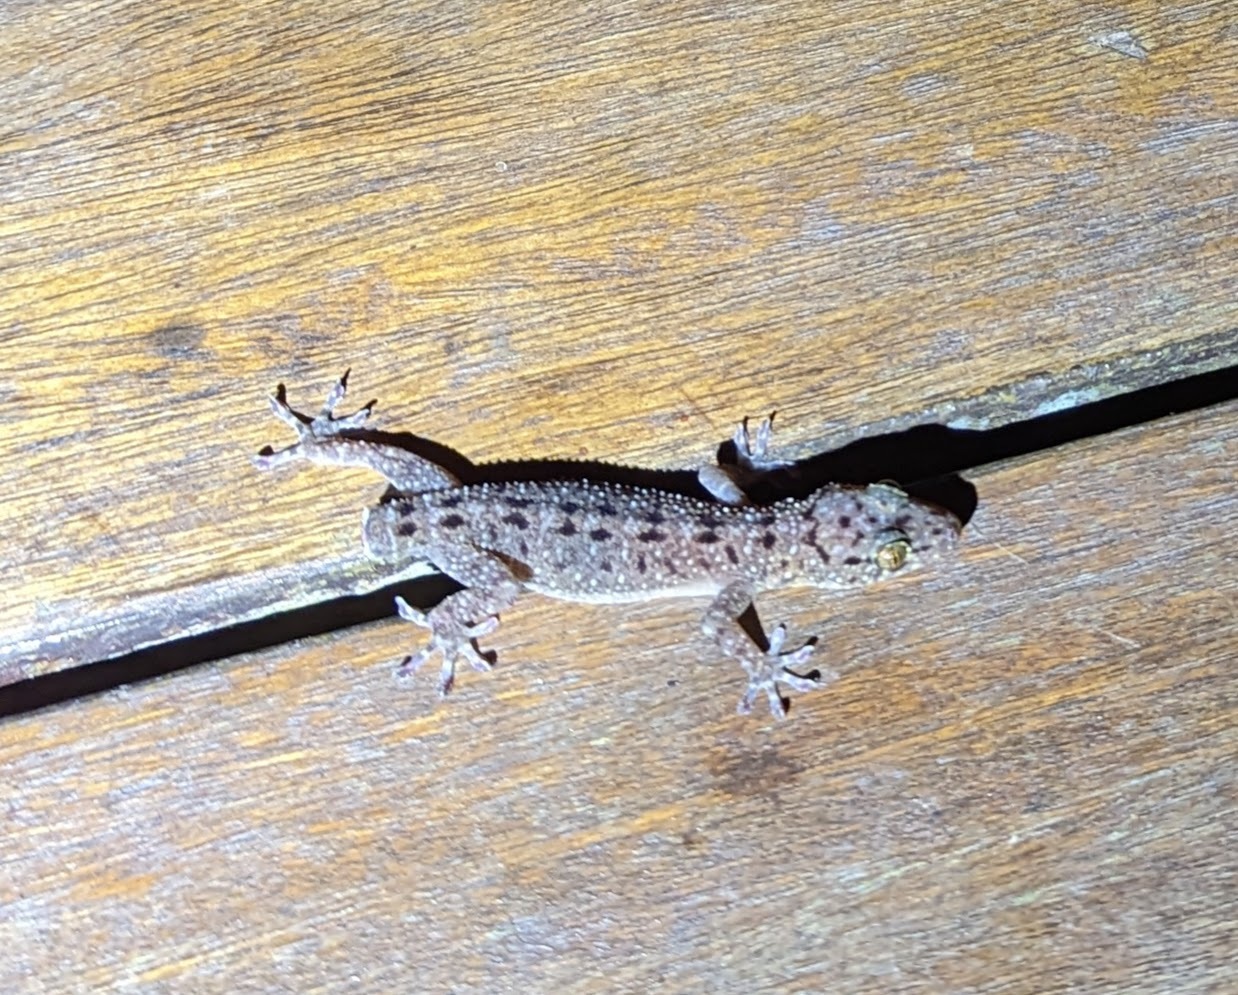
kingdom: Animalia
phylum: Chordata
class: Squamata
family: Gekkonidae
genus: Gekko
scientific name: Gekko monarchus
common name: Spotted house gecko
